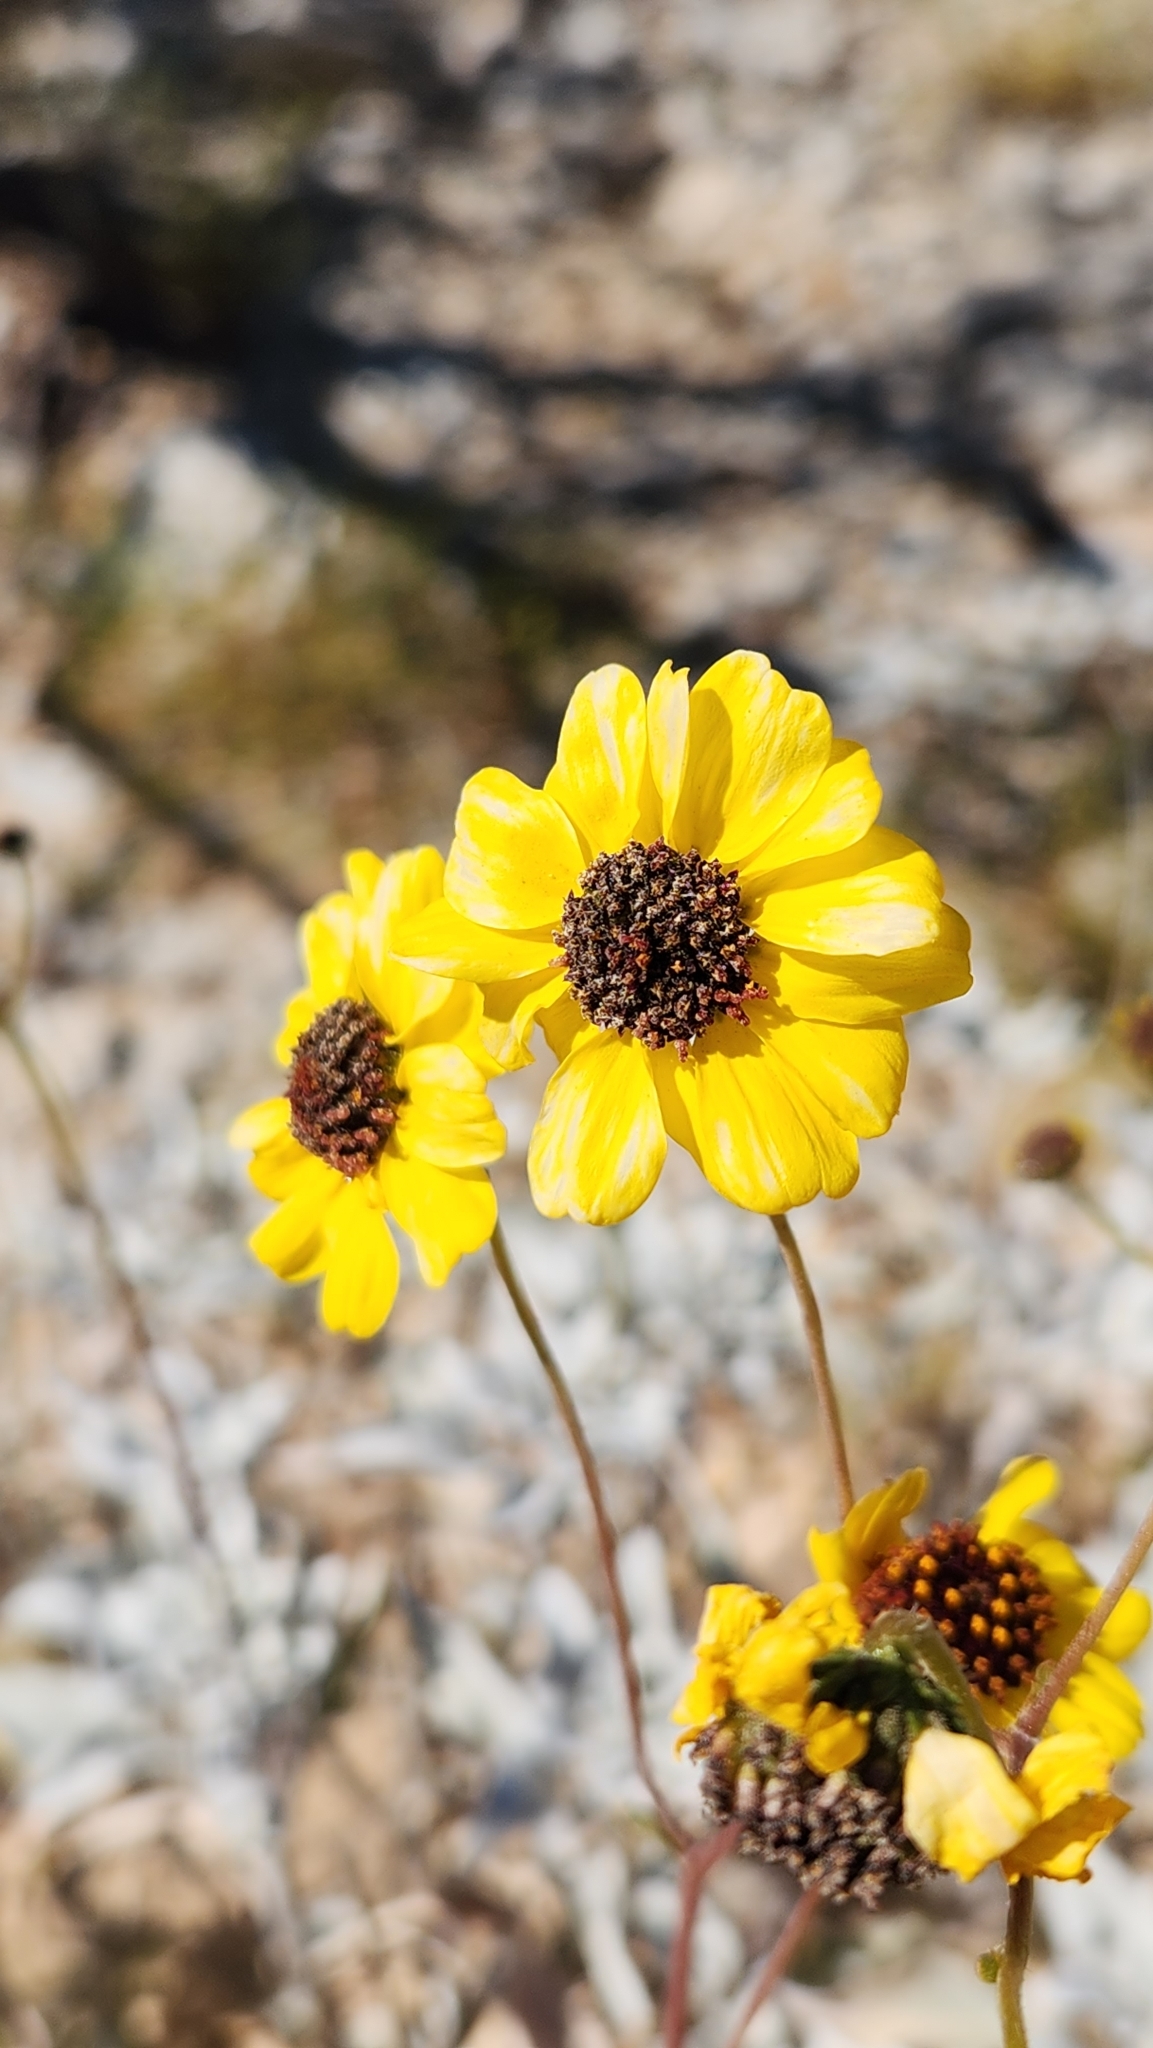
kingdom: Plantae
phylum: Tracheophyta
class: Magnoliopsida
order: Asterales
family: Asteraceae
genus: Encelia
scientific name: Encelia farinosa
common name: Brittlebush
